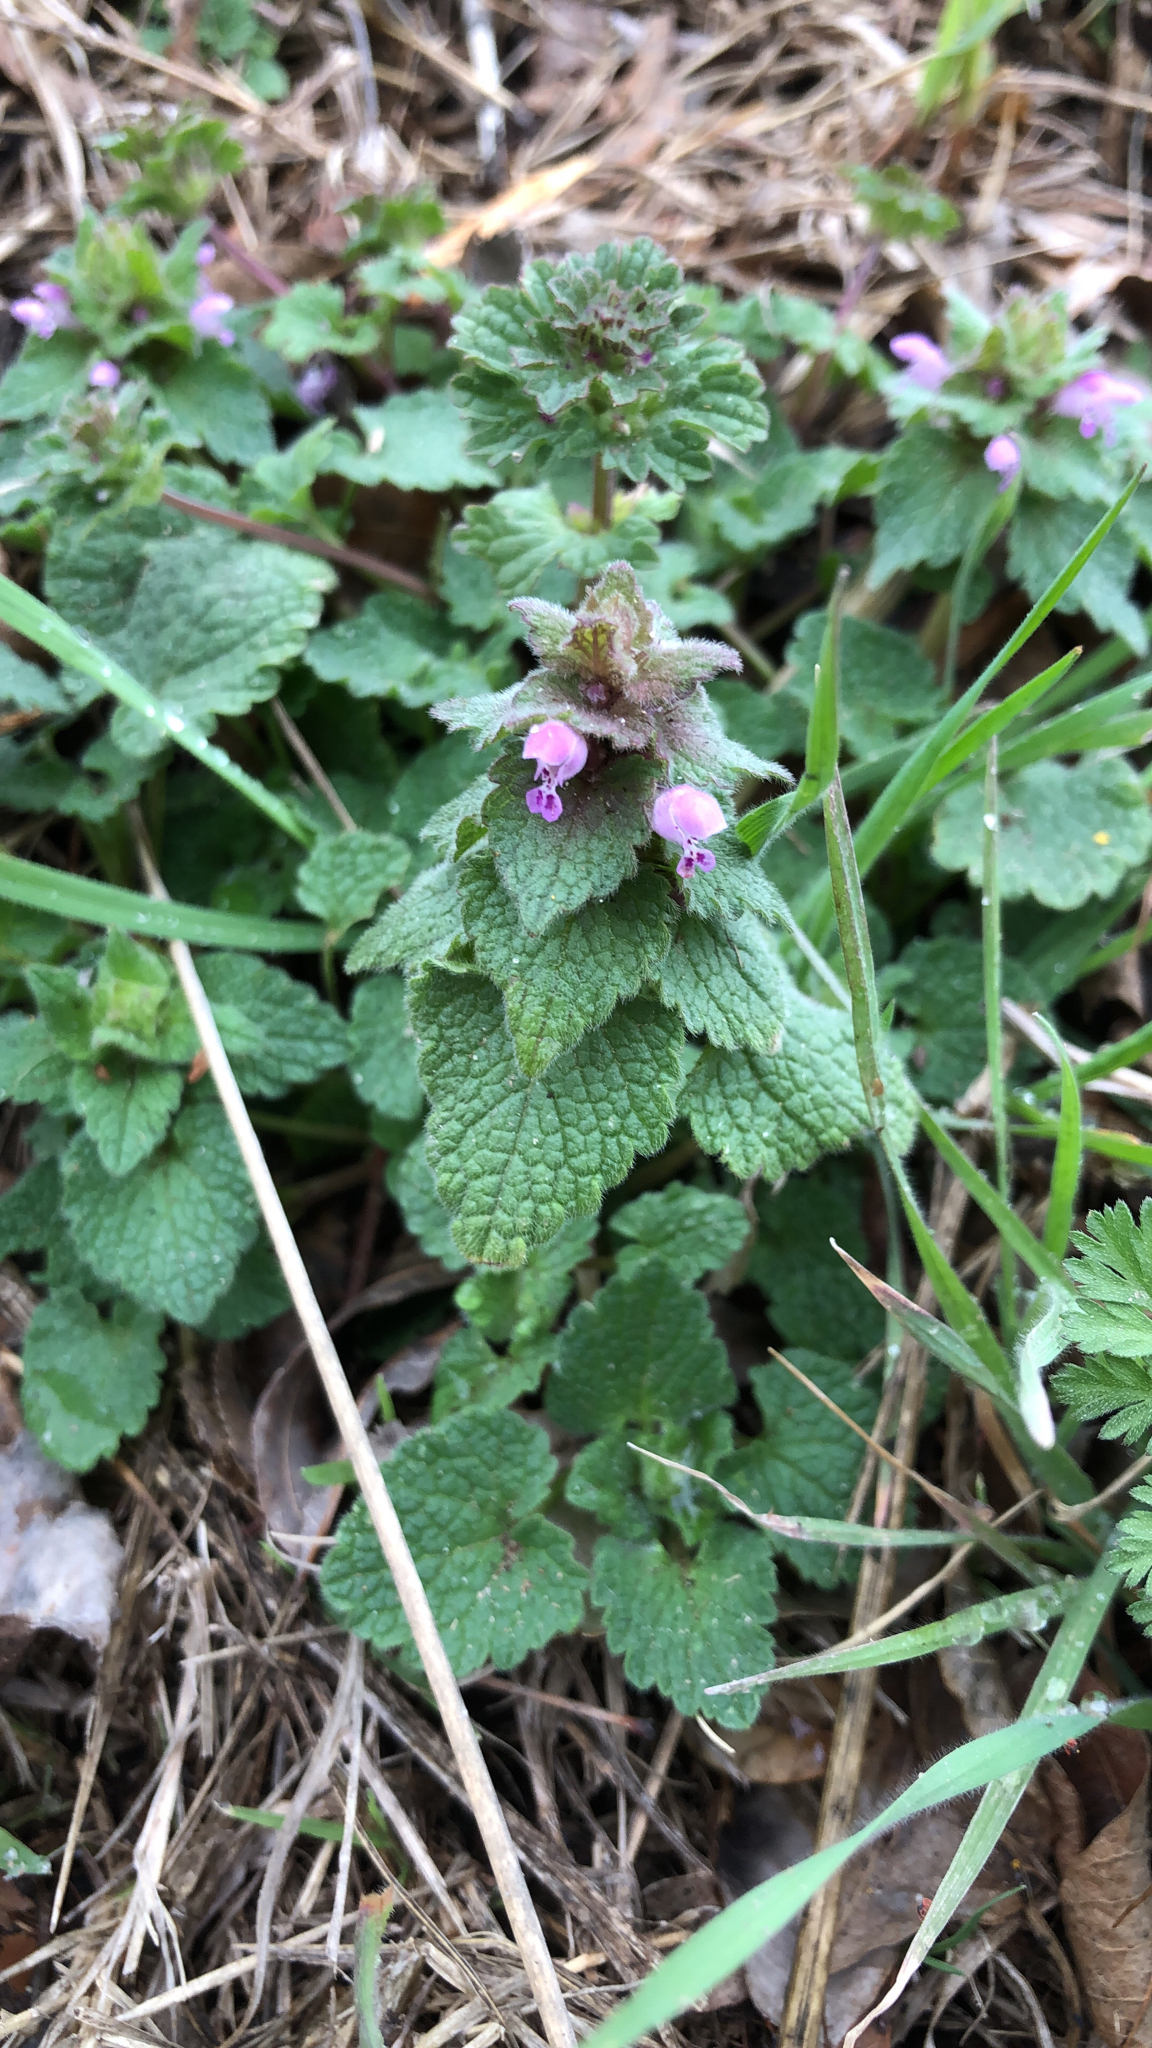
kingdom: Plantae
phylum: Tracheophyta
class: Magnoliopsida
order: Lamiales
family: Lamiaceae
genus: Lamium
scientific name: Lamium purpureum
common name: Red dead-nettle
